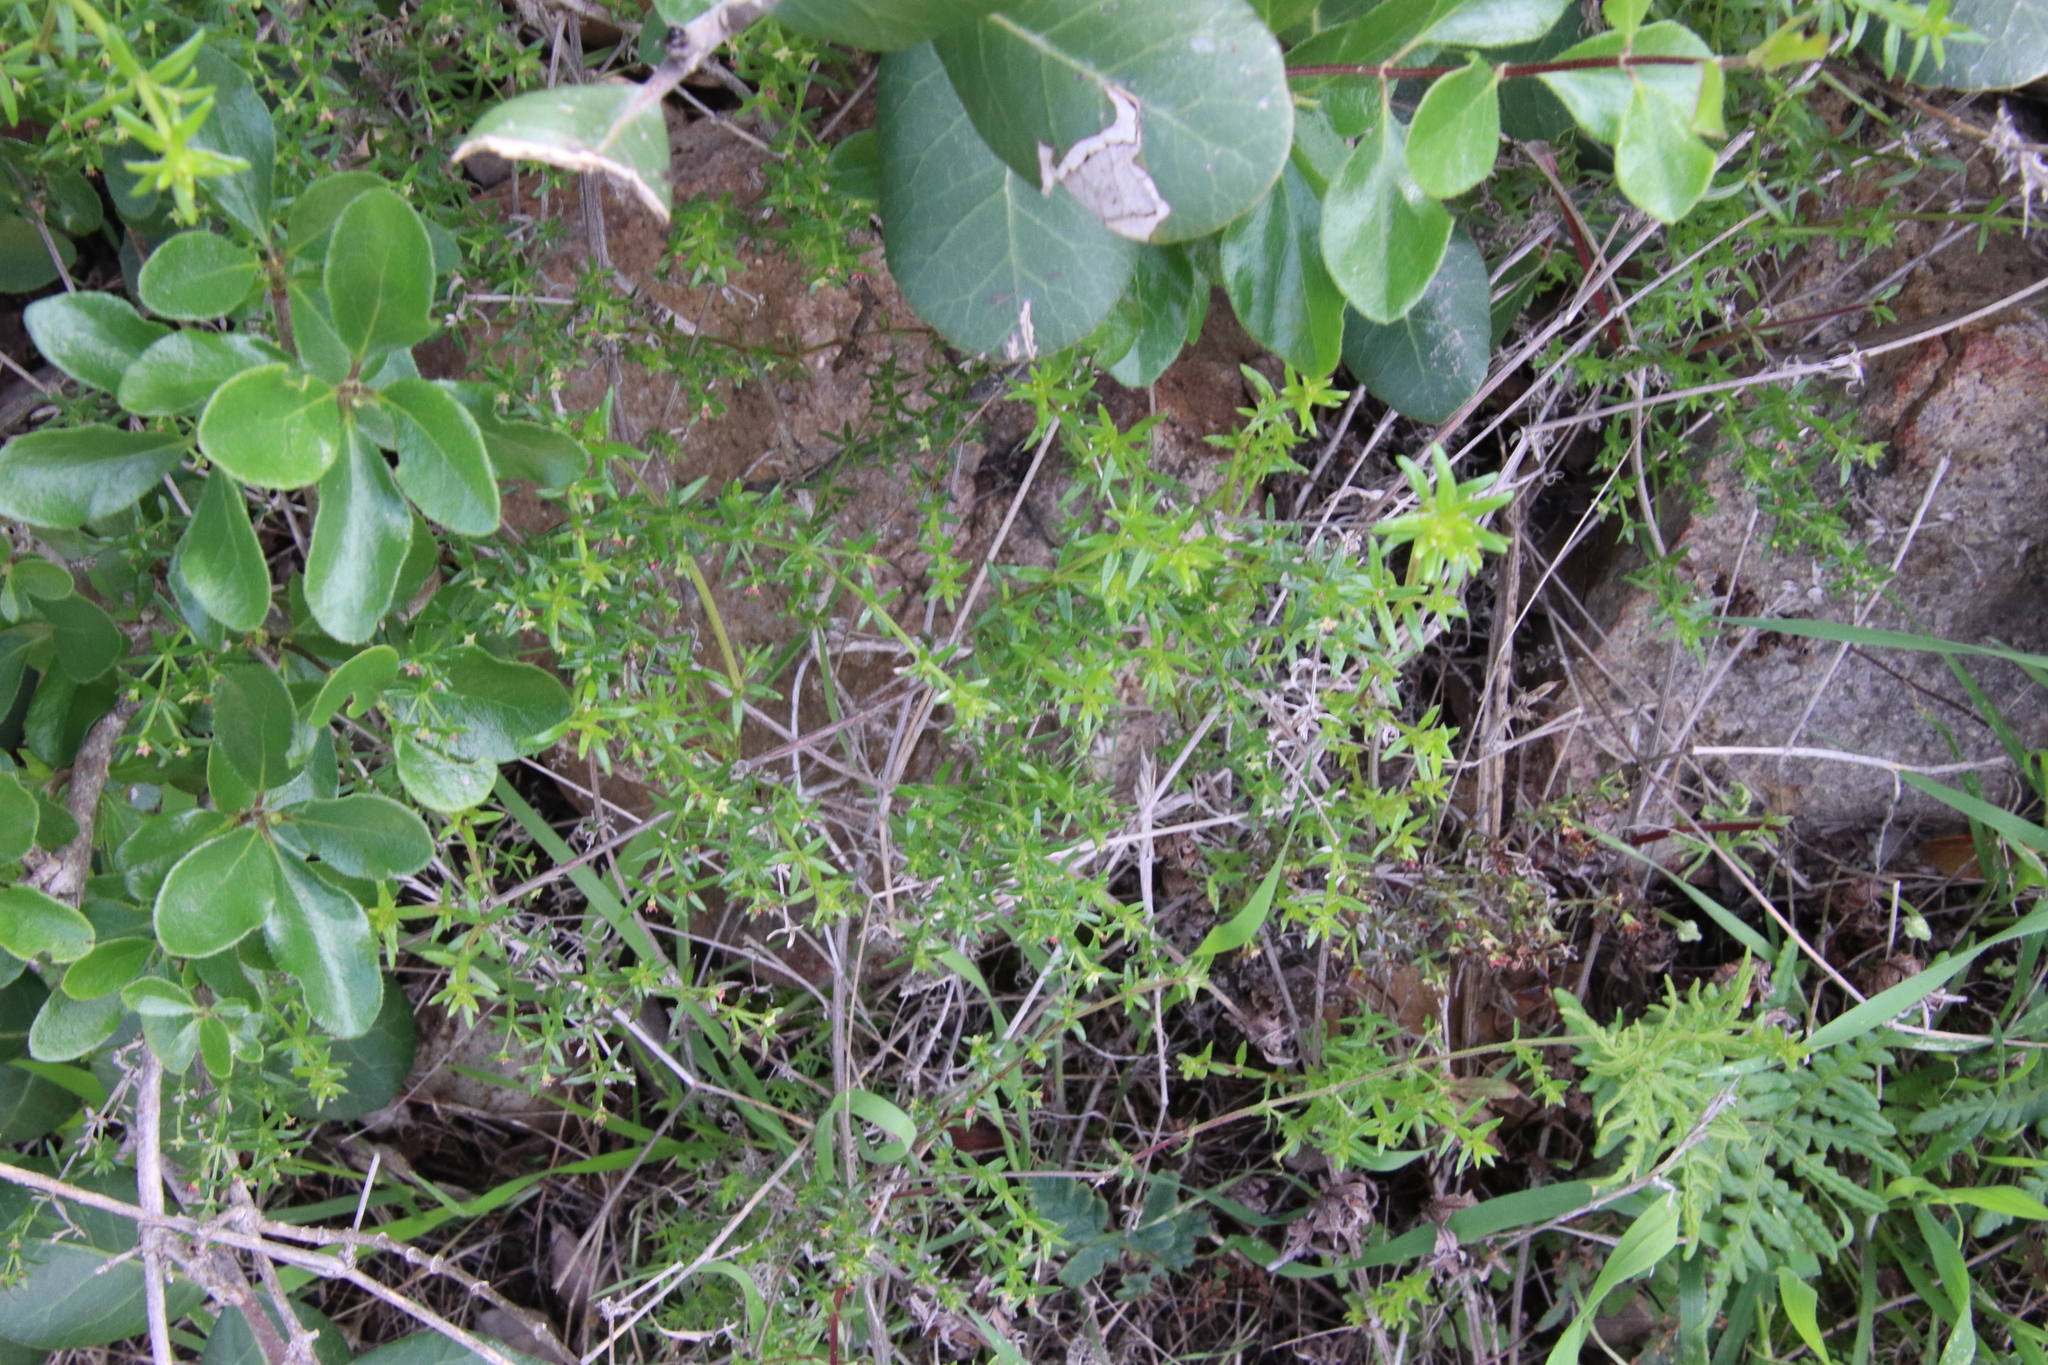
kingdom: Plantae
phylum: Tracheophyta
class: Magnoliopsida
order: Gentianales
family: Rubiaceae
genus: Galium
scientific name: Galium angustifolium
